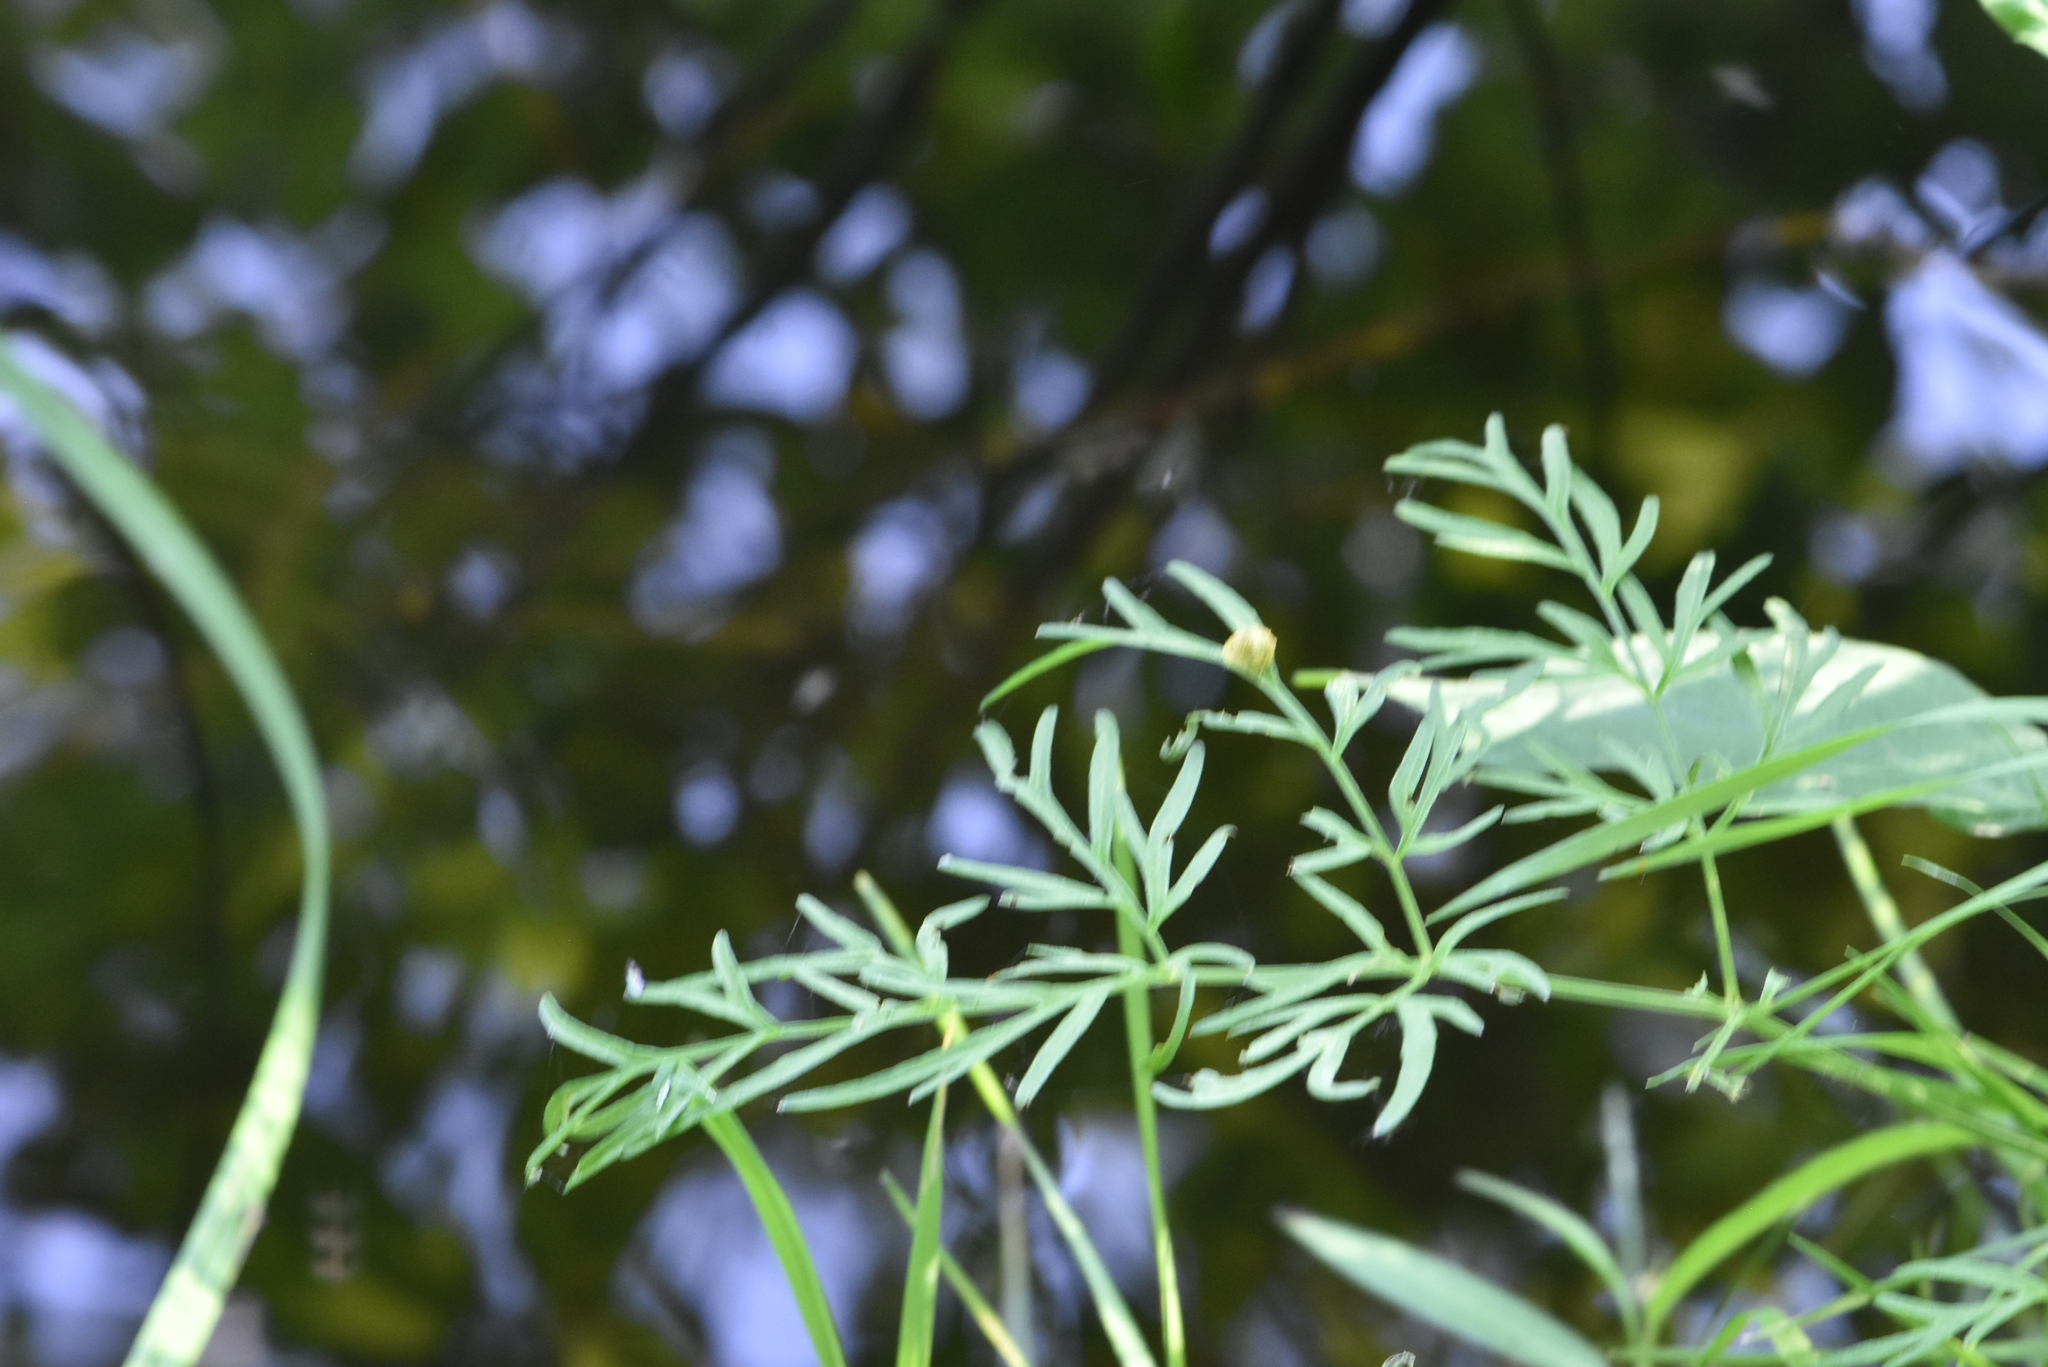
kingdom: Plantae
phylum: Tracheophyta
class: Magnoliopsida
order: Apiales
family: Apiaceae
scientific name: Apiaceae
